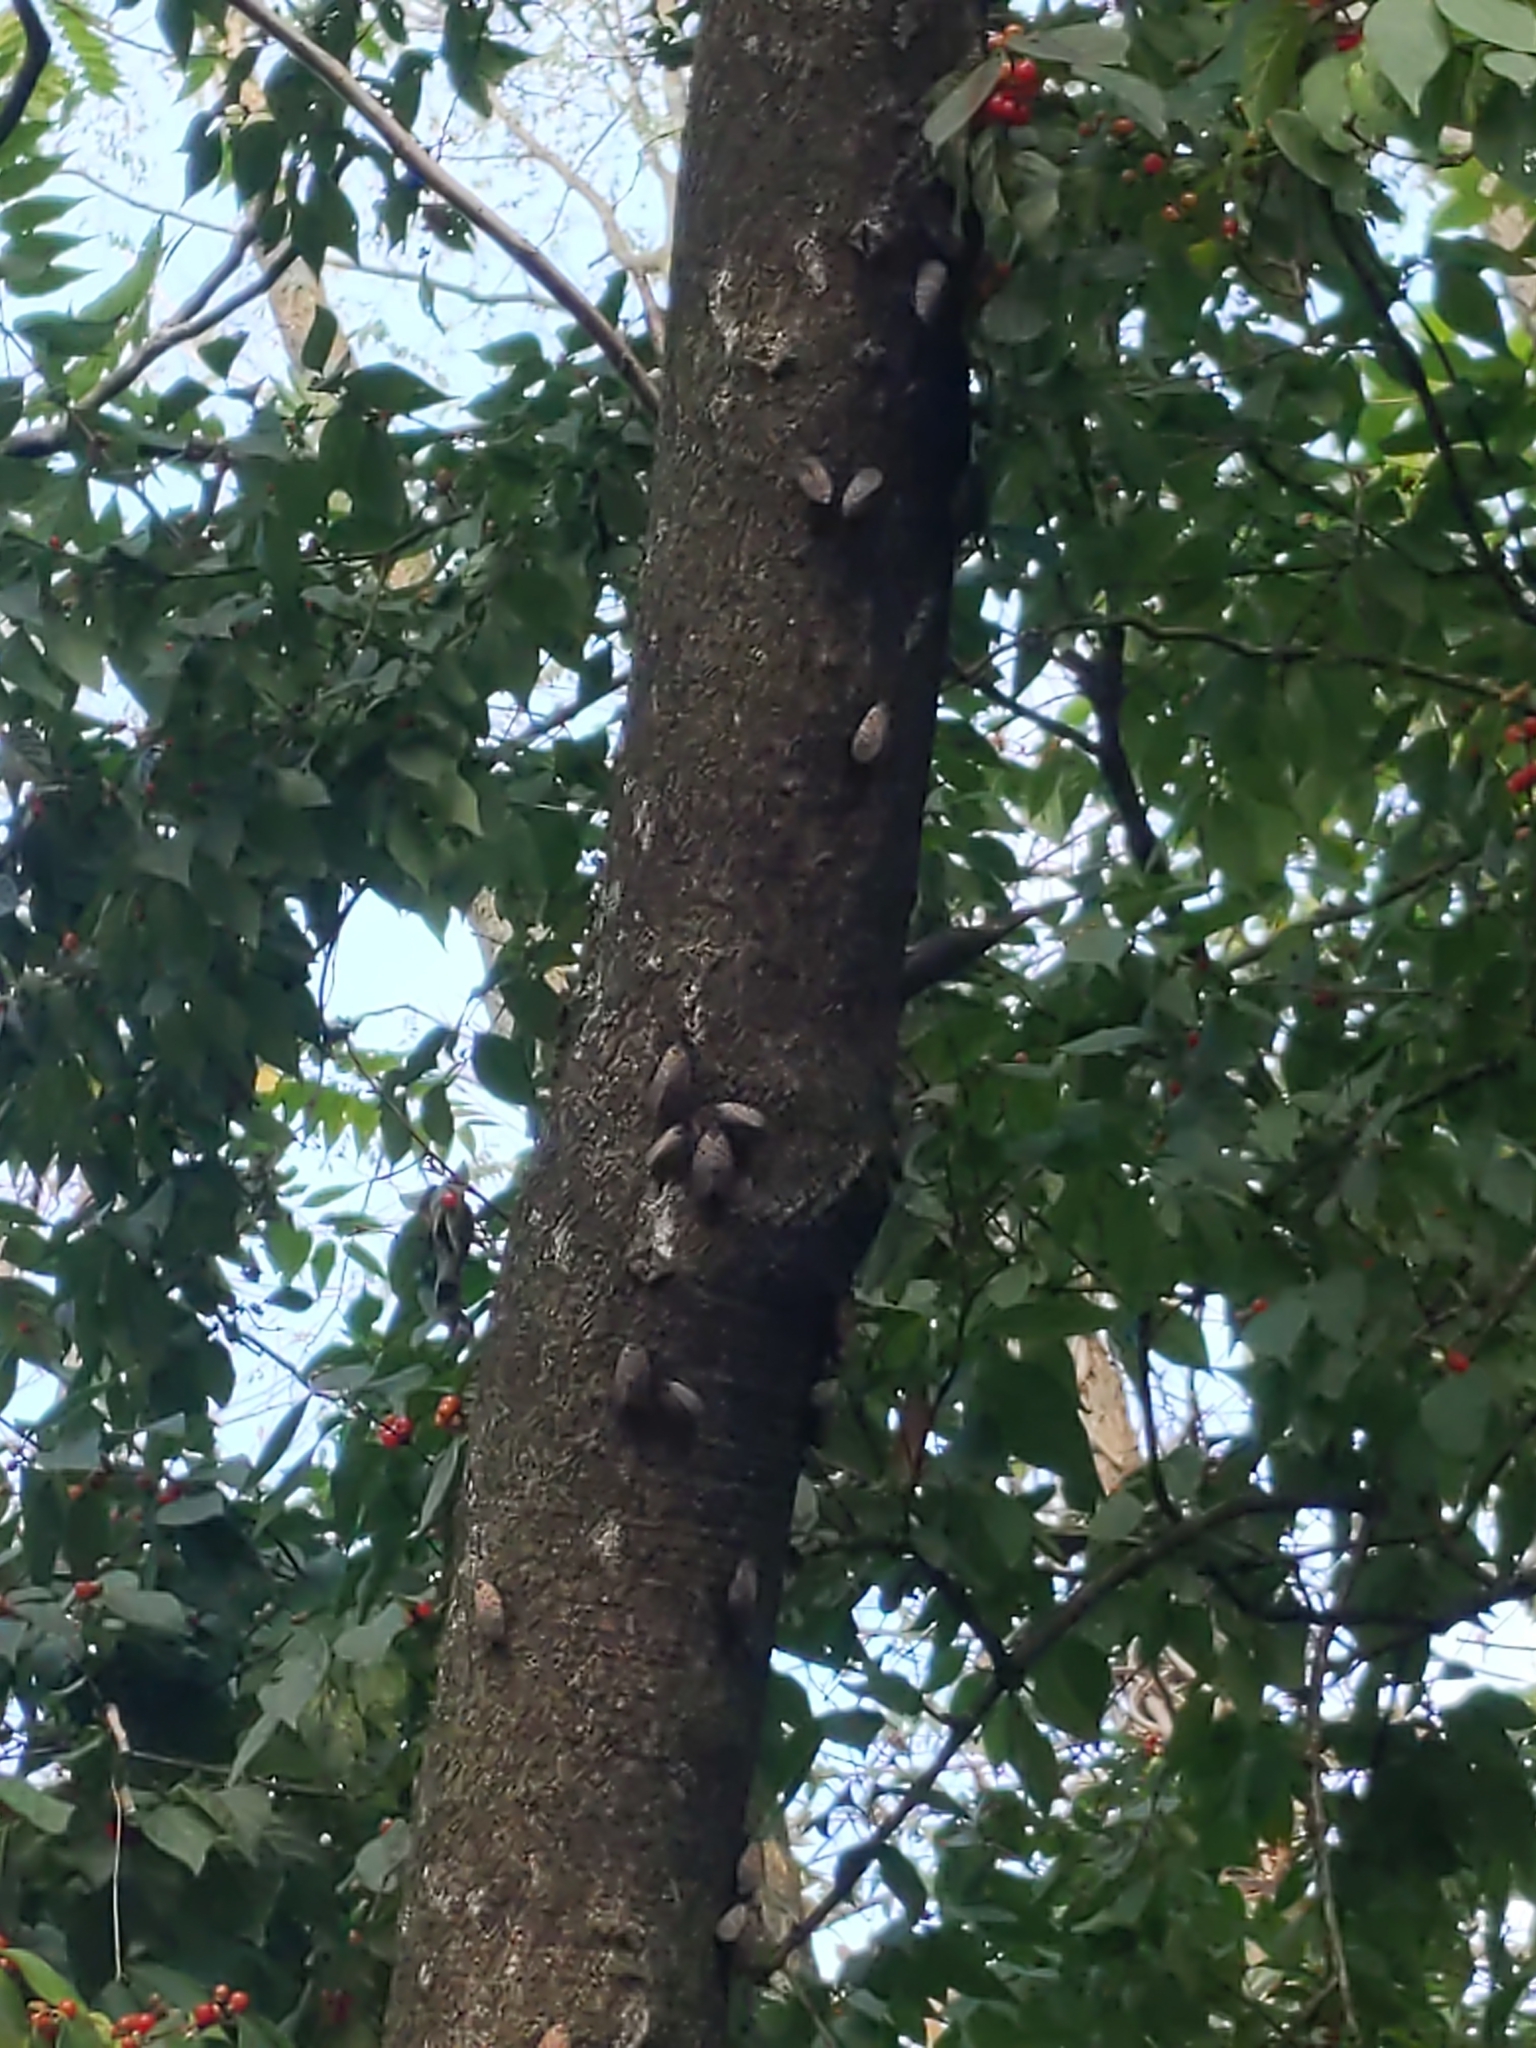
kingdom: Animalia
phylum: Arthropoda
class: Insecta
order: Hemiptera
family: Fulgoridae
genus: Lycorma
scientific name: Lycorma delicatula
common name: Spotted lanternfly
